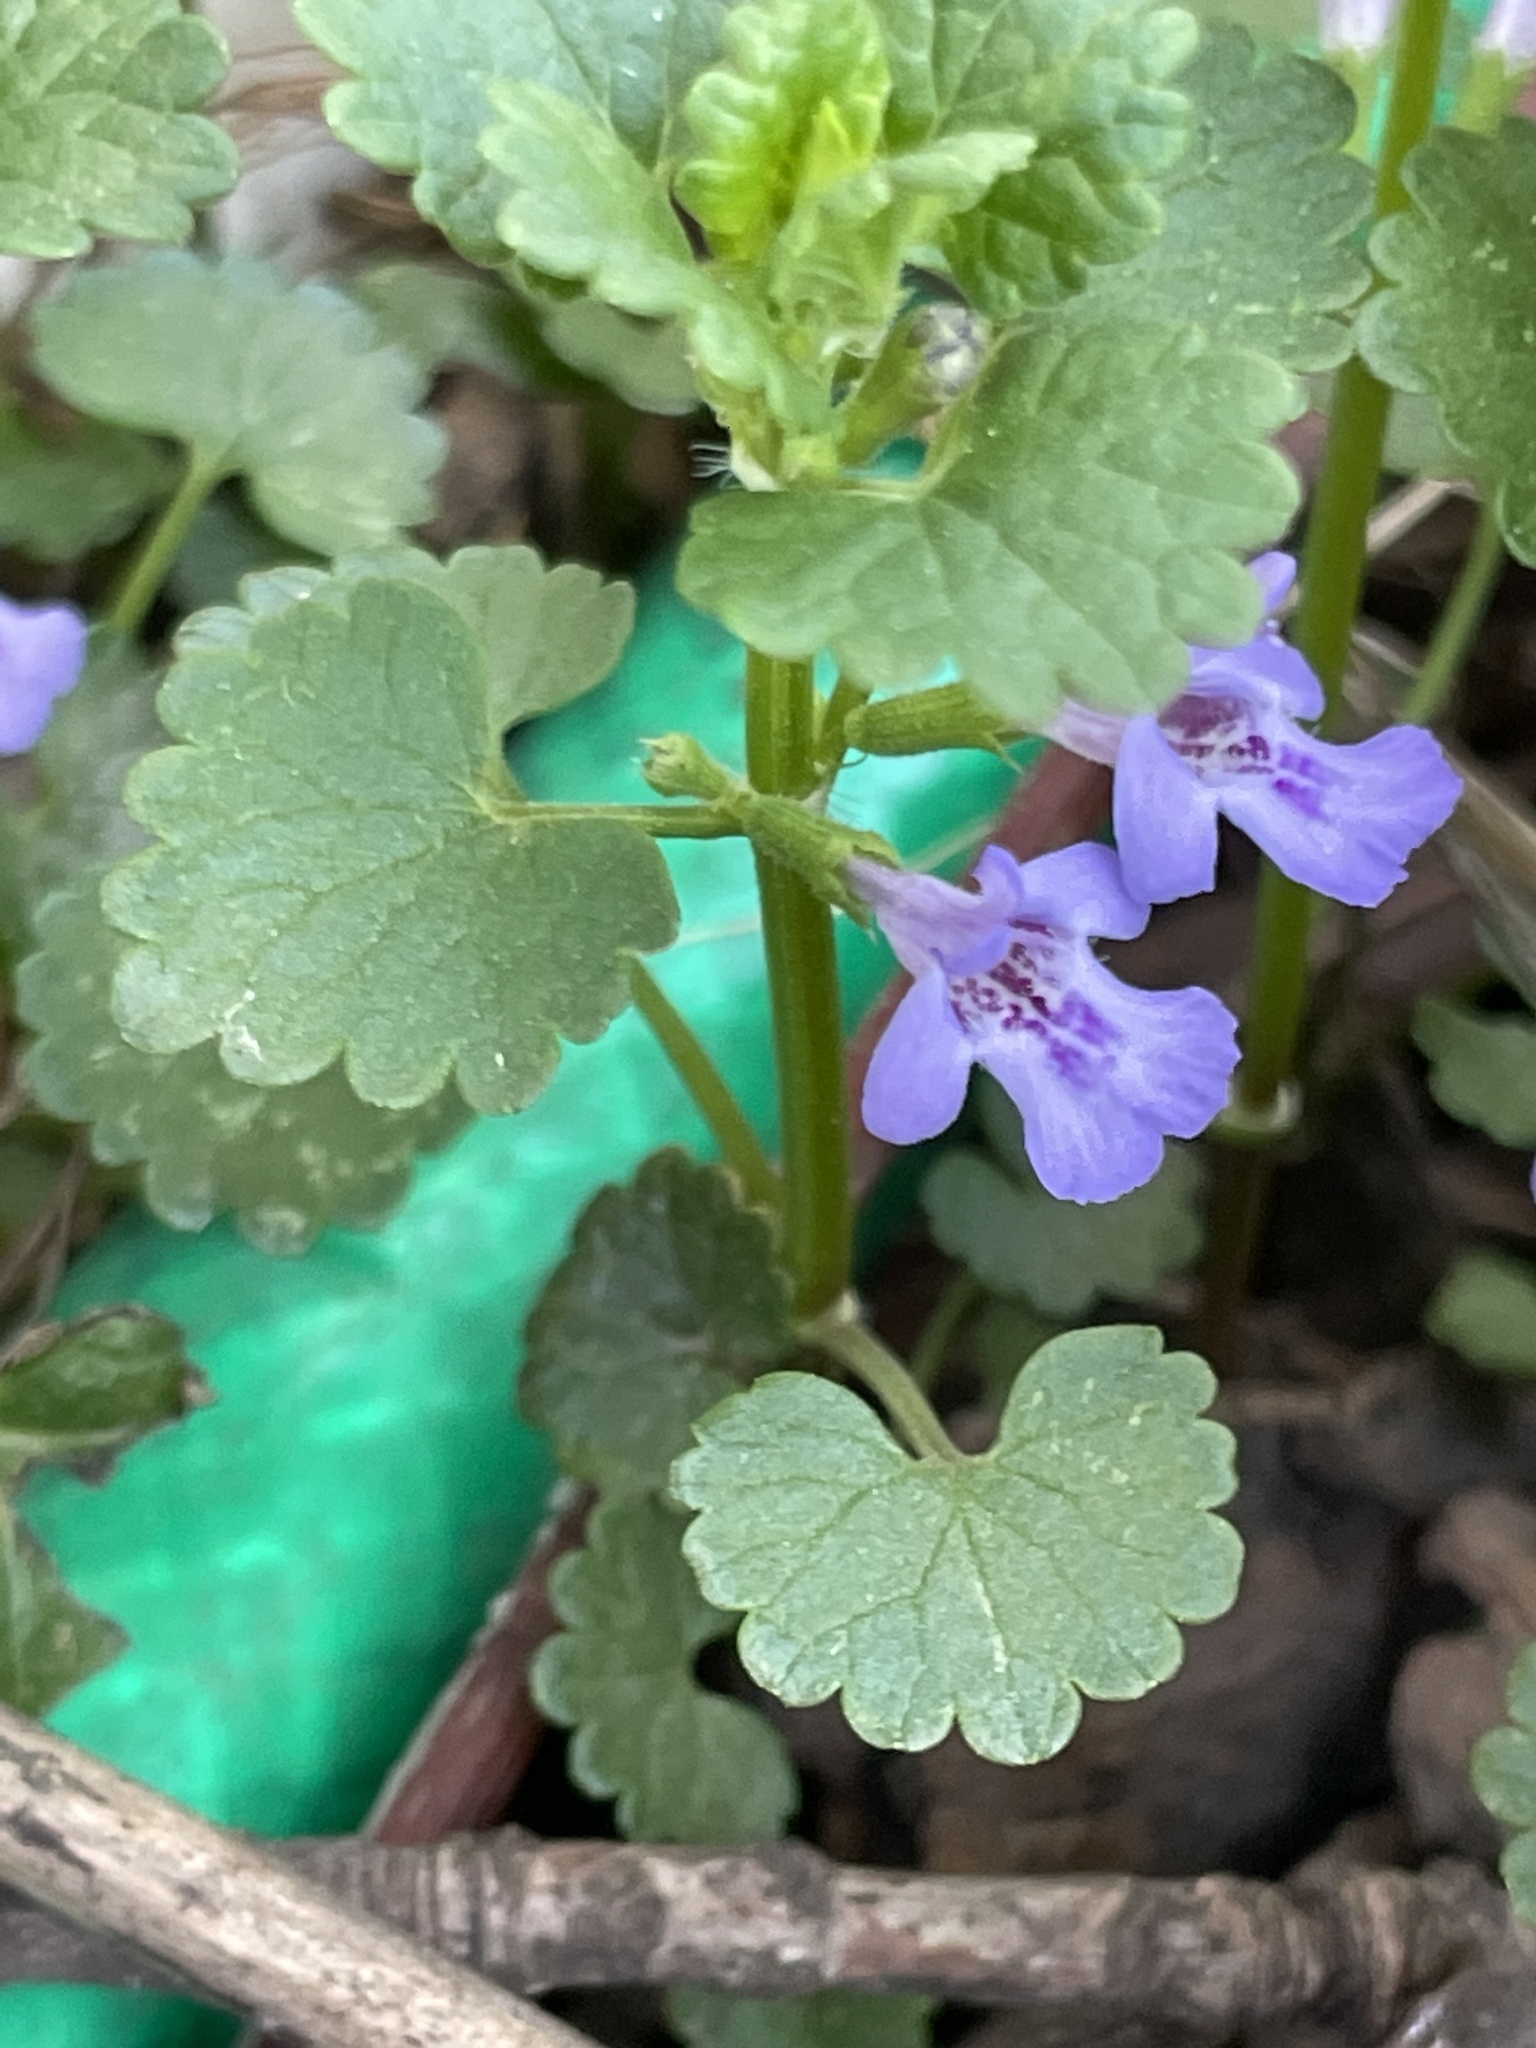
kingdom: Plantae
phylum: Tracheophyta
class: Magnoliopsida
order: Lamiales
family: Lamiaceae
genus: Glechoma
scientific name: Glechoma hederacea
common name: Ground ivy
